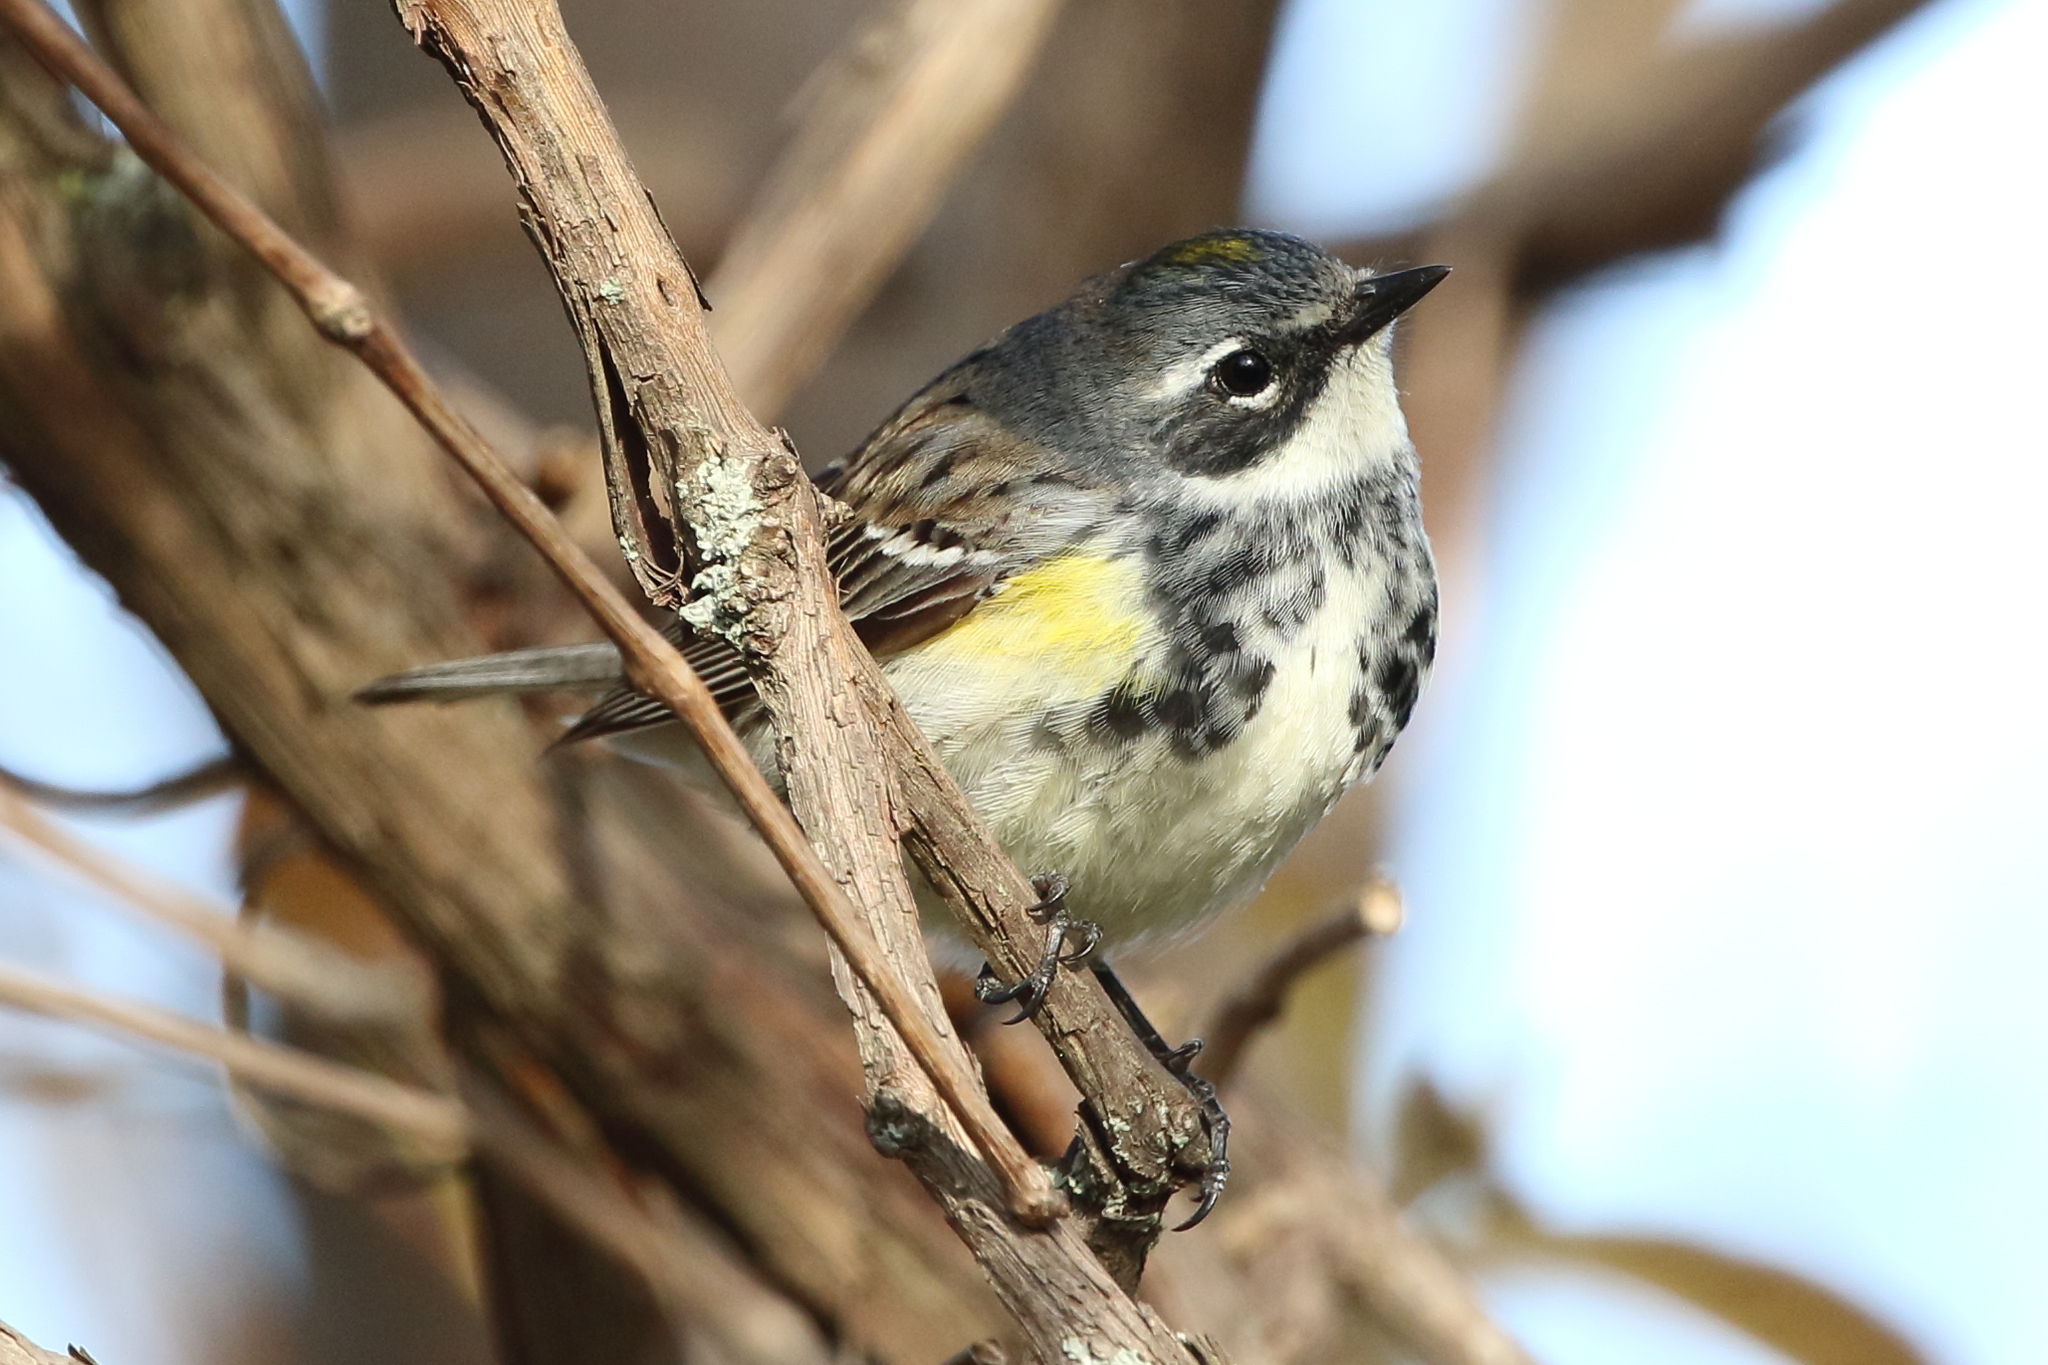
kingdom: Animalia
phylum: Chordata
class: Aves
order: Passeriformes
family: Parulidae
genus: Setophaga
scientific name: Setophaga coronata
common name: Myrtle warbler
